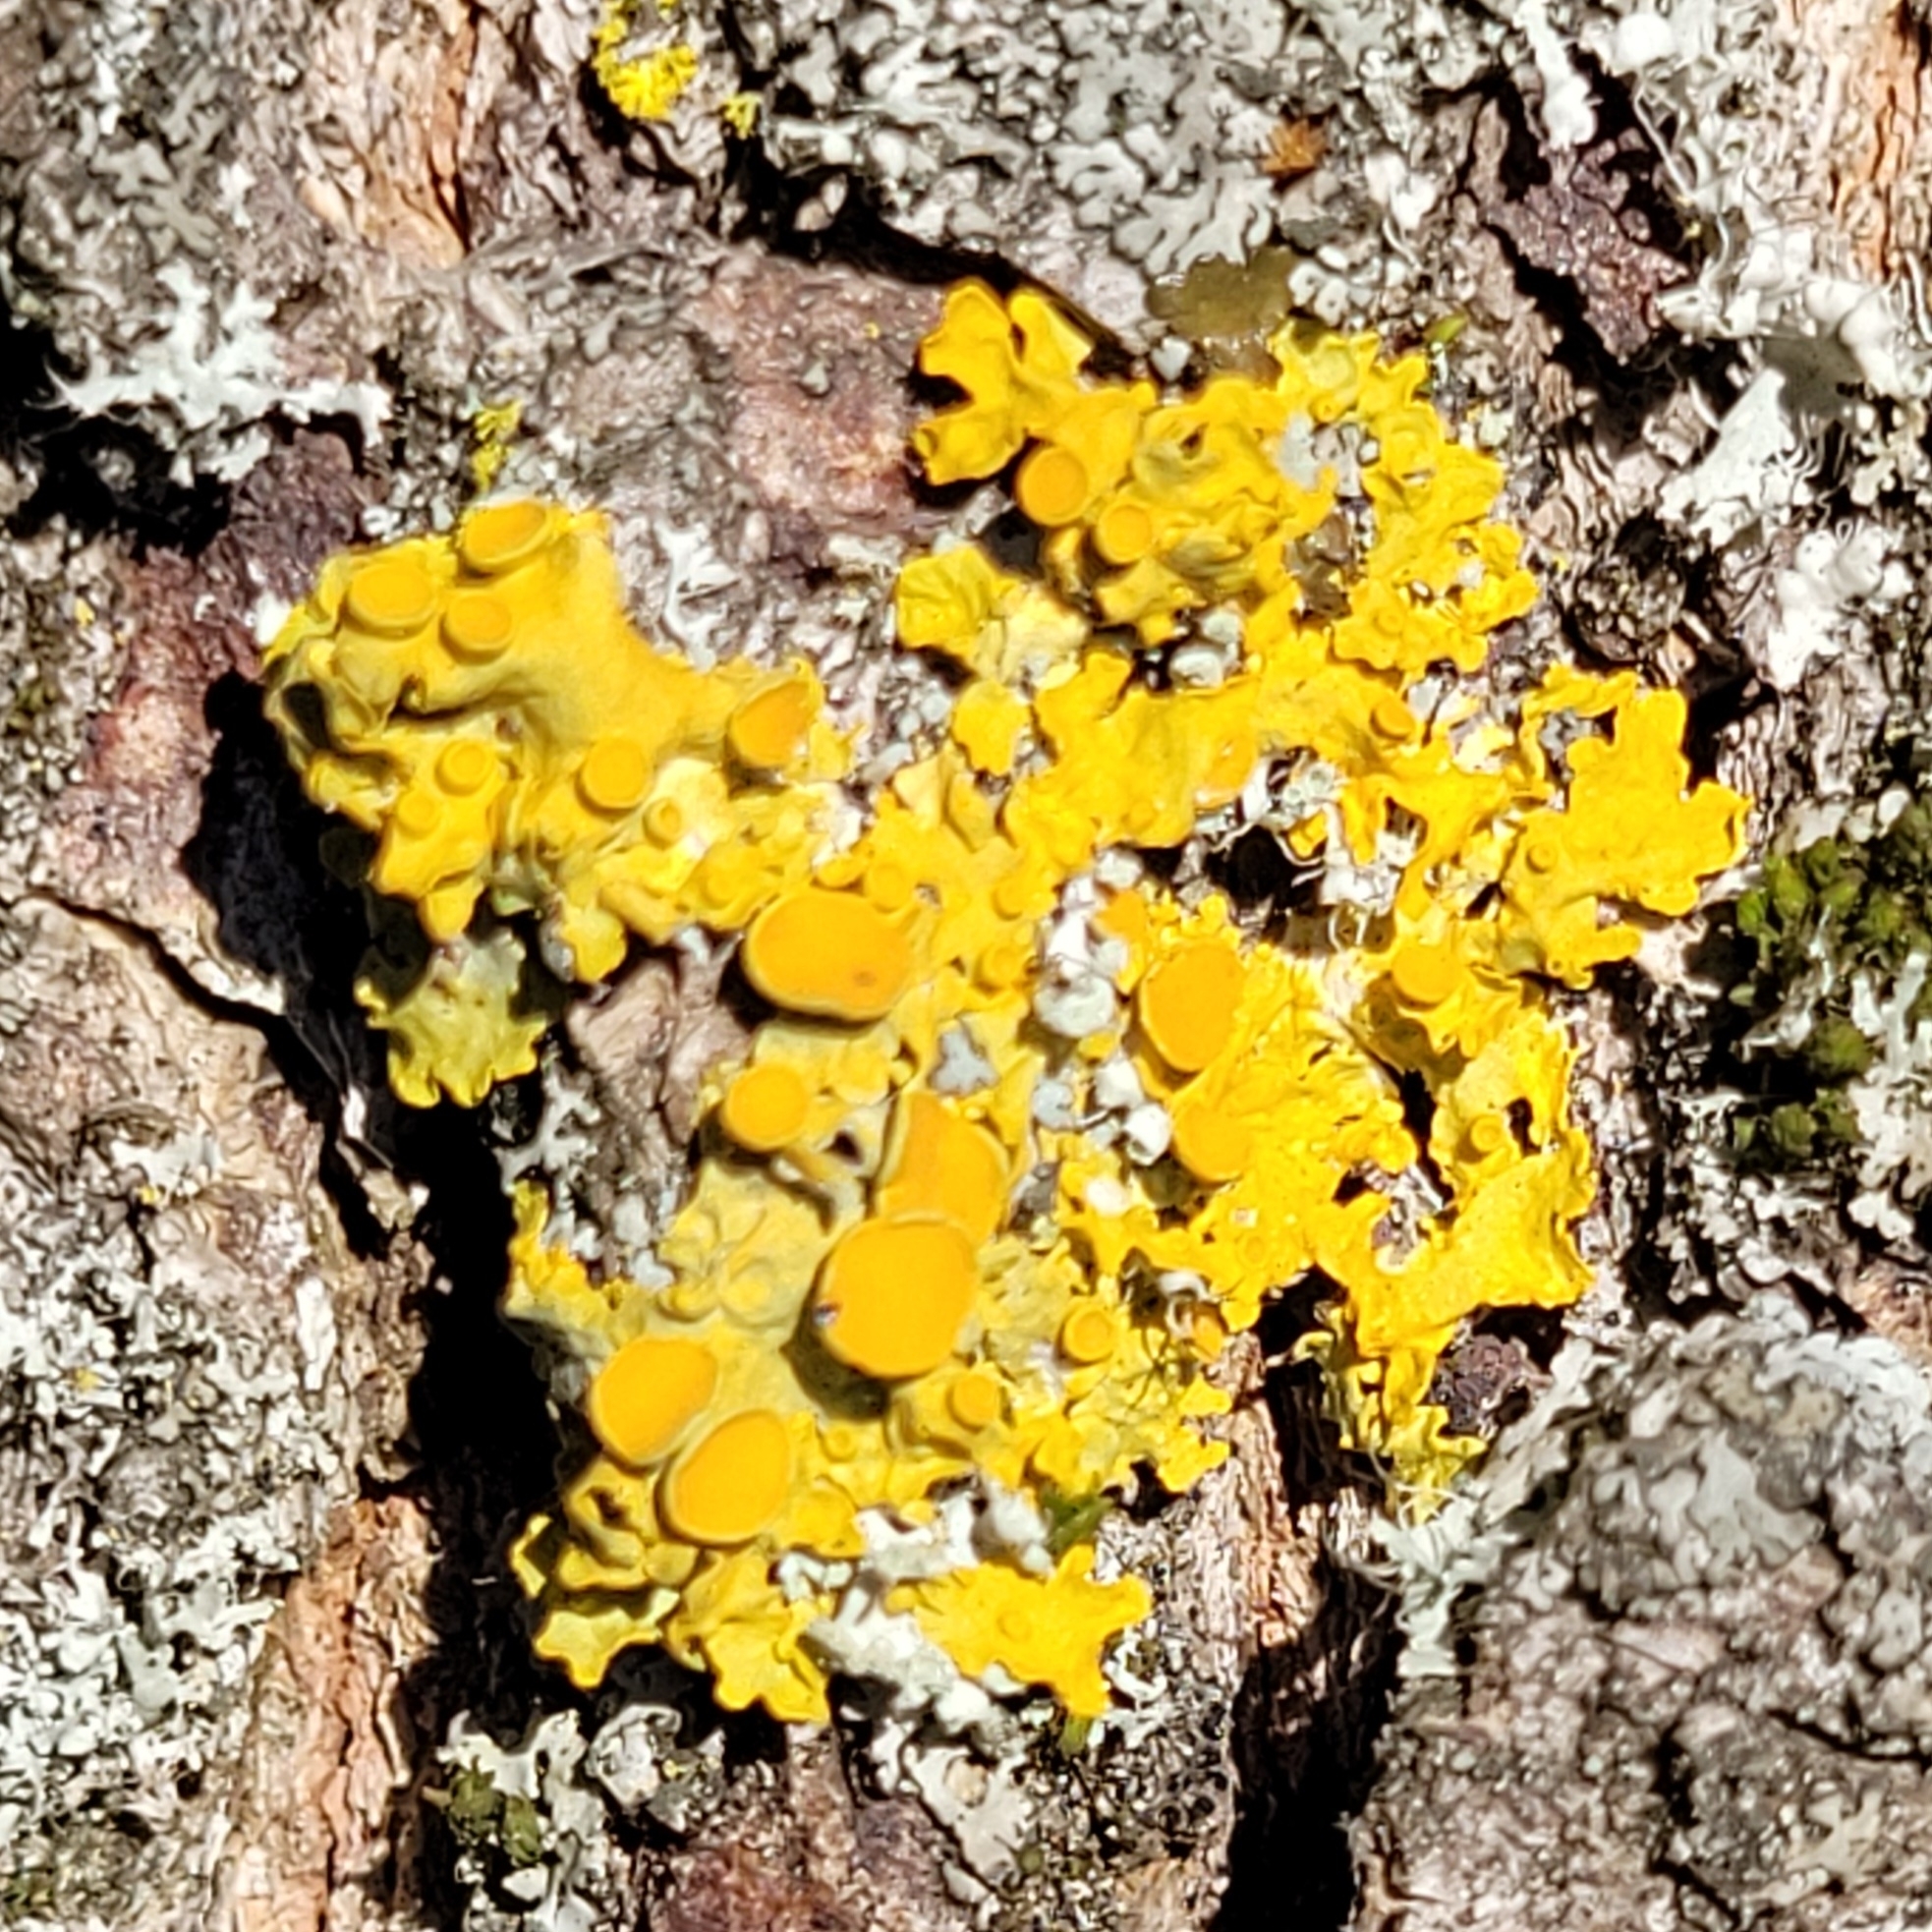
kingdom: Fungi
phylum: Ascomycota
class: Lecanoromycetes
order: Teloschistales
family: Teloschistaceae
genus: Xanthoria
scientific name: Xanthoria parietina
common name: Common orange lichen
